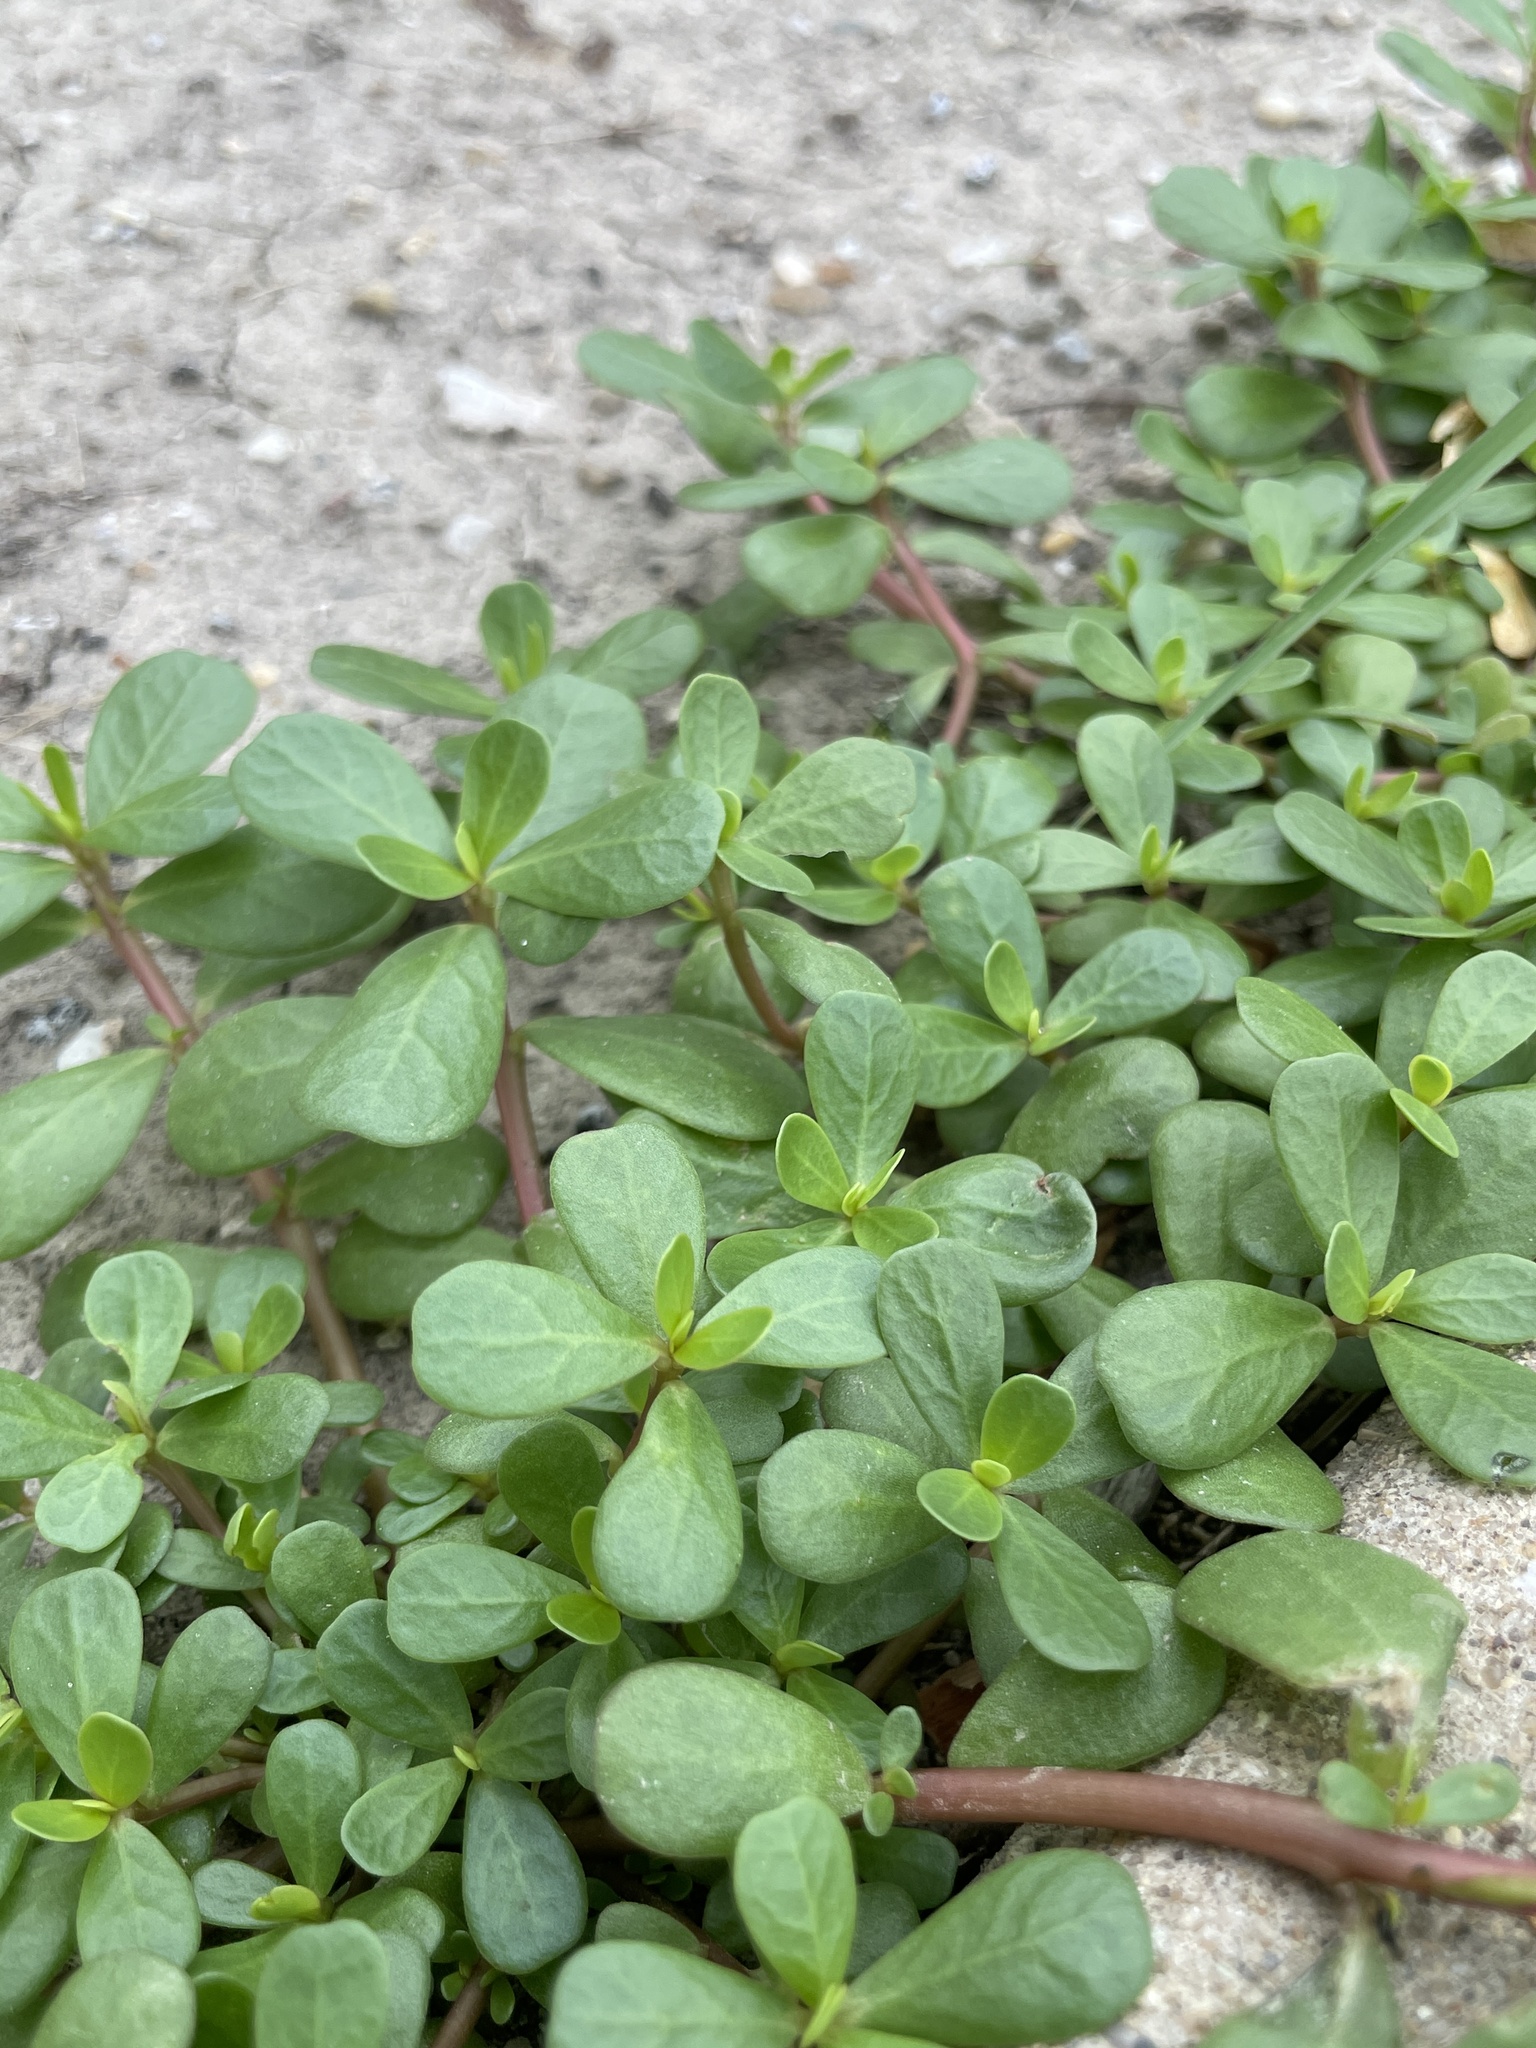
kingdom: Plantae
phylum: Tracheophyta
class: Magnoliopsida
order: Caryophyllales
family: Portulacaceae
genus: Portulaca
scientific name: Portulaca oleracea
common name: Common purslane
